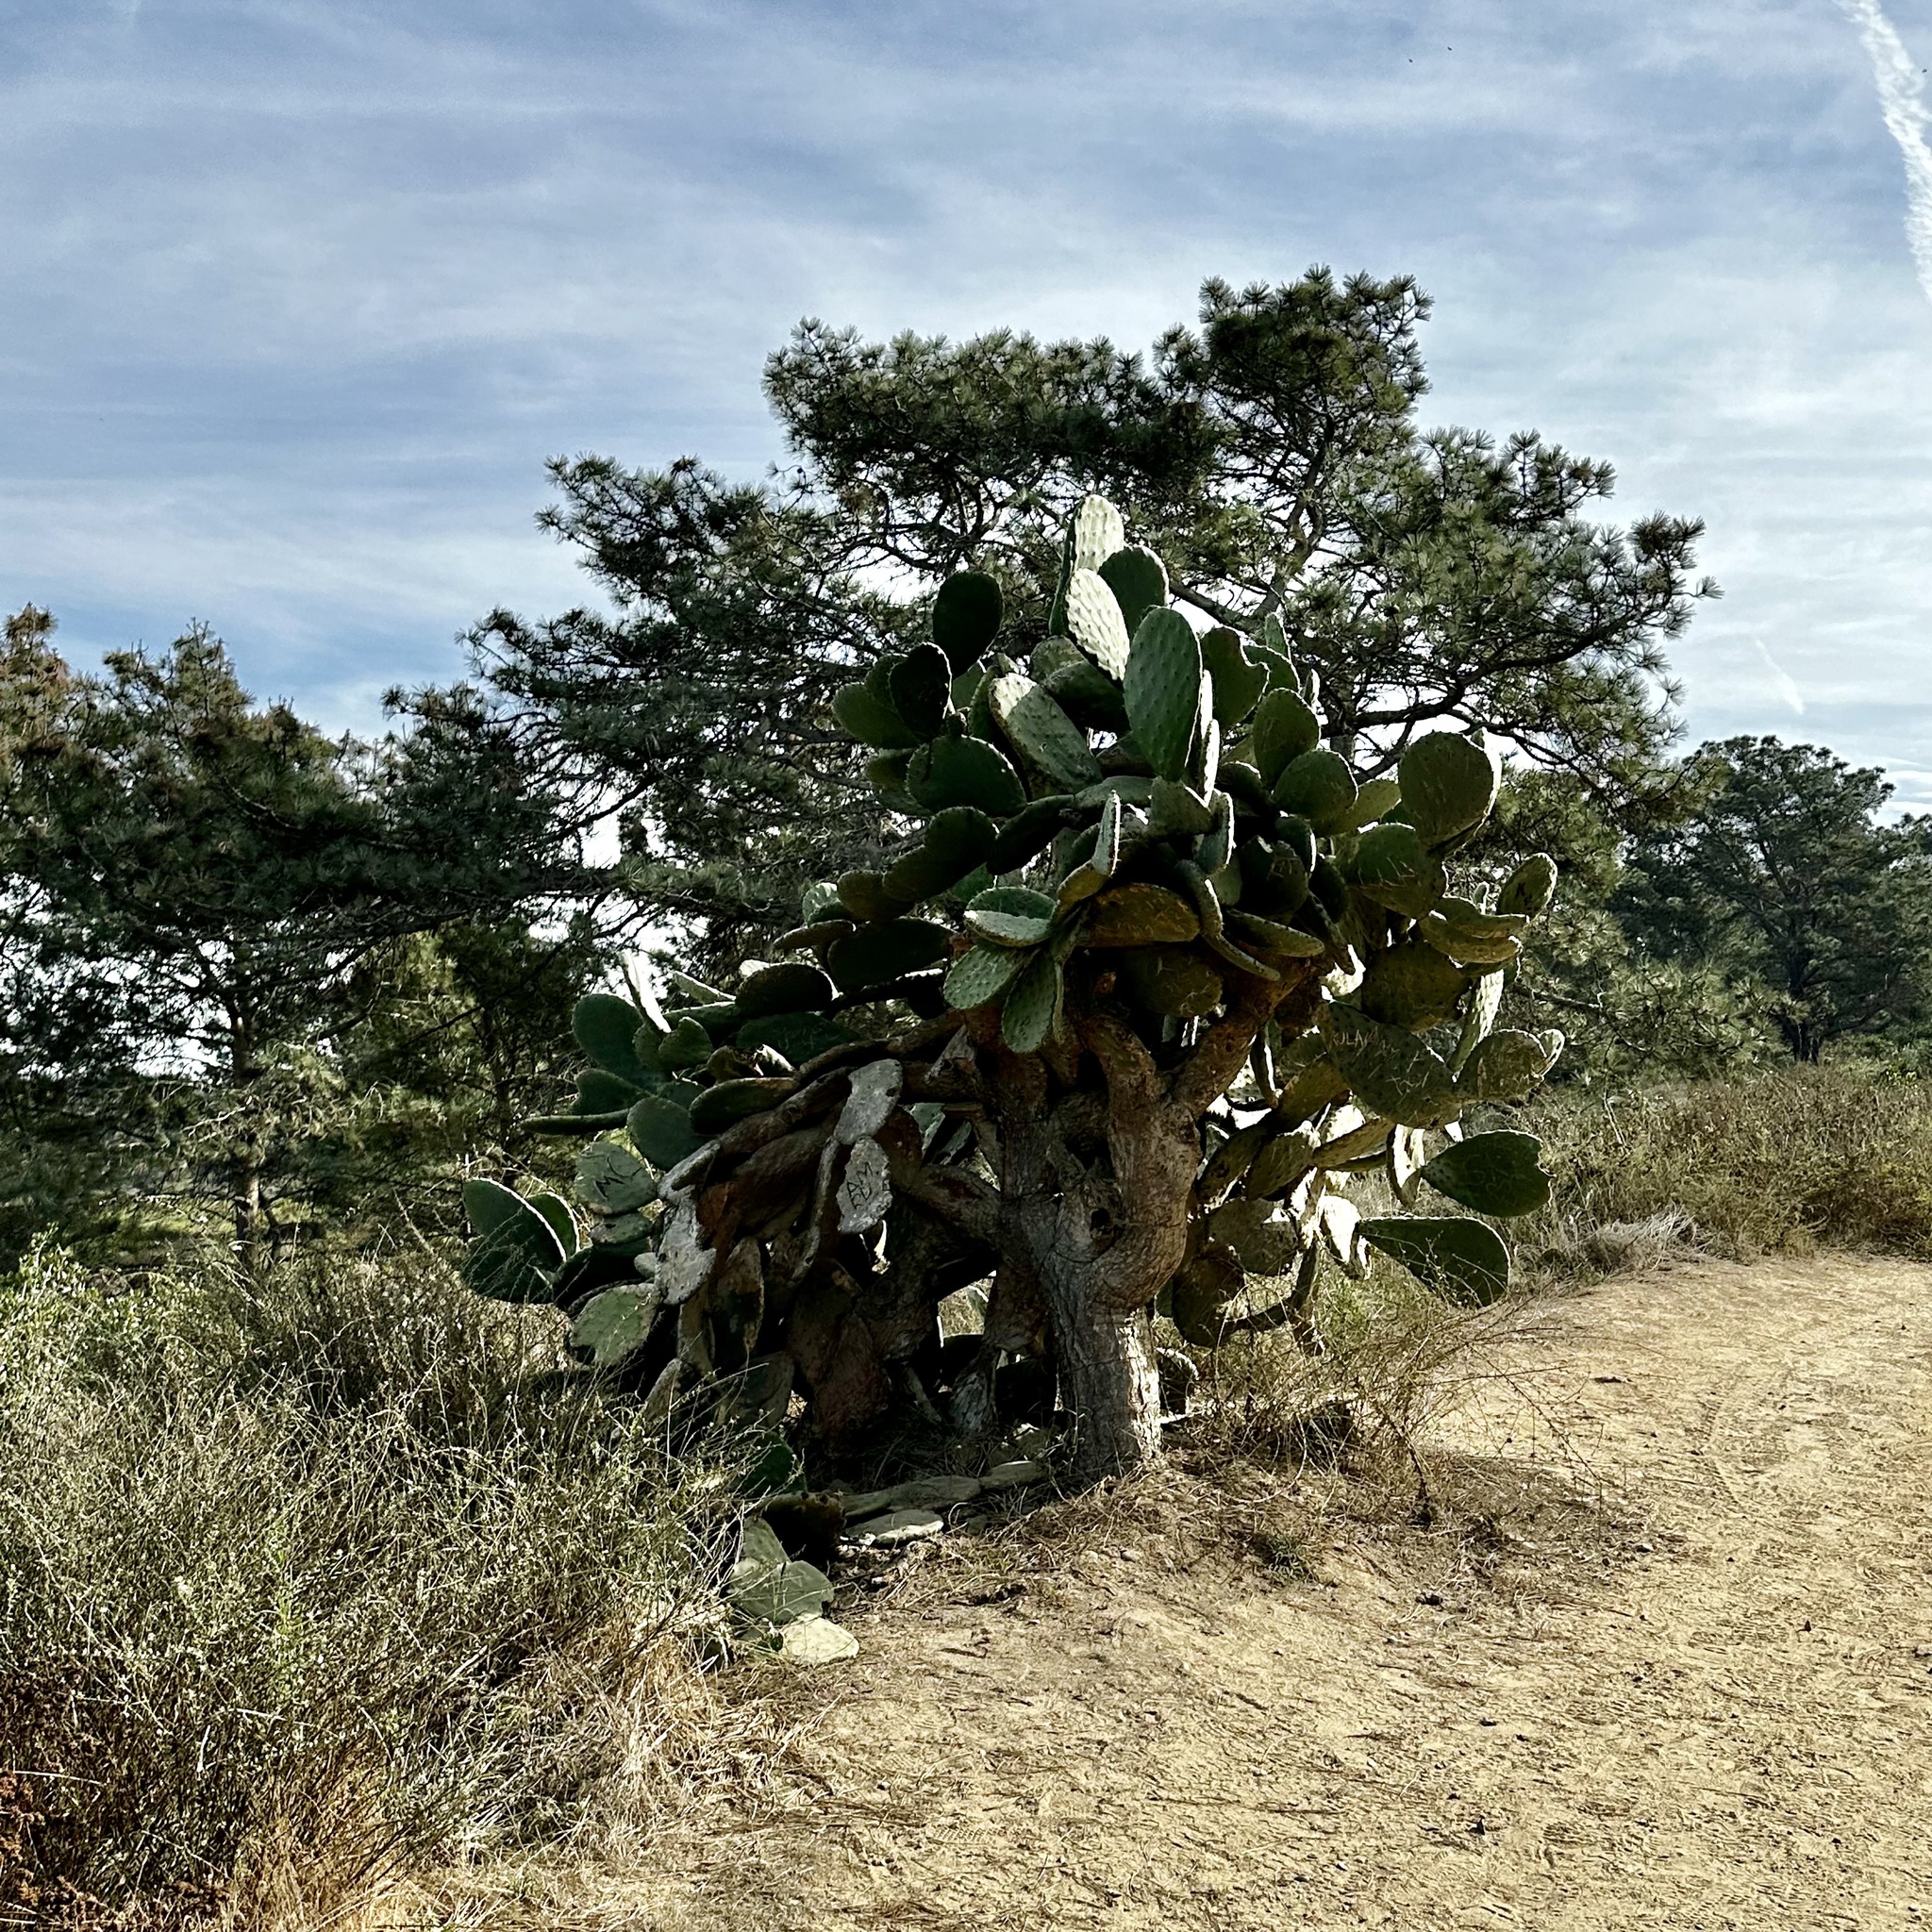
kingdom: Plantae
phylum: Tracheophyta
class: Magnoliopsida
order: Caryophyllales
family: Cactaceae
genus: Opuntia
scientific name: Opuntia ficus-indica
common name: Barbary fig
